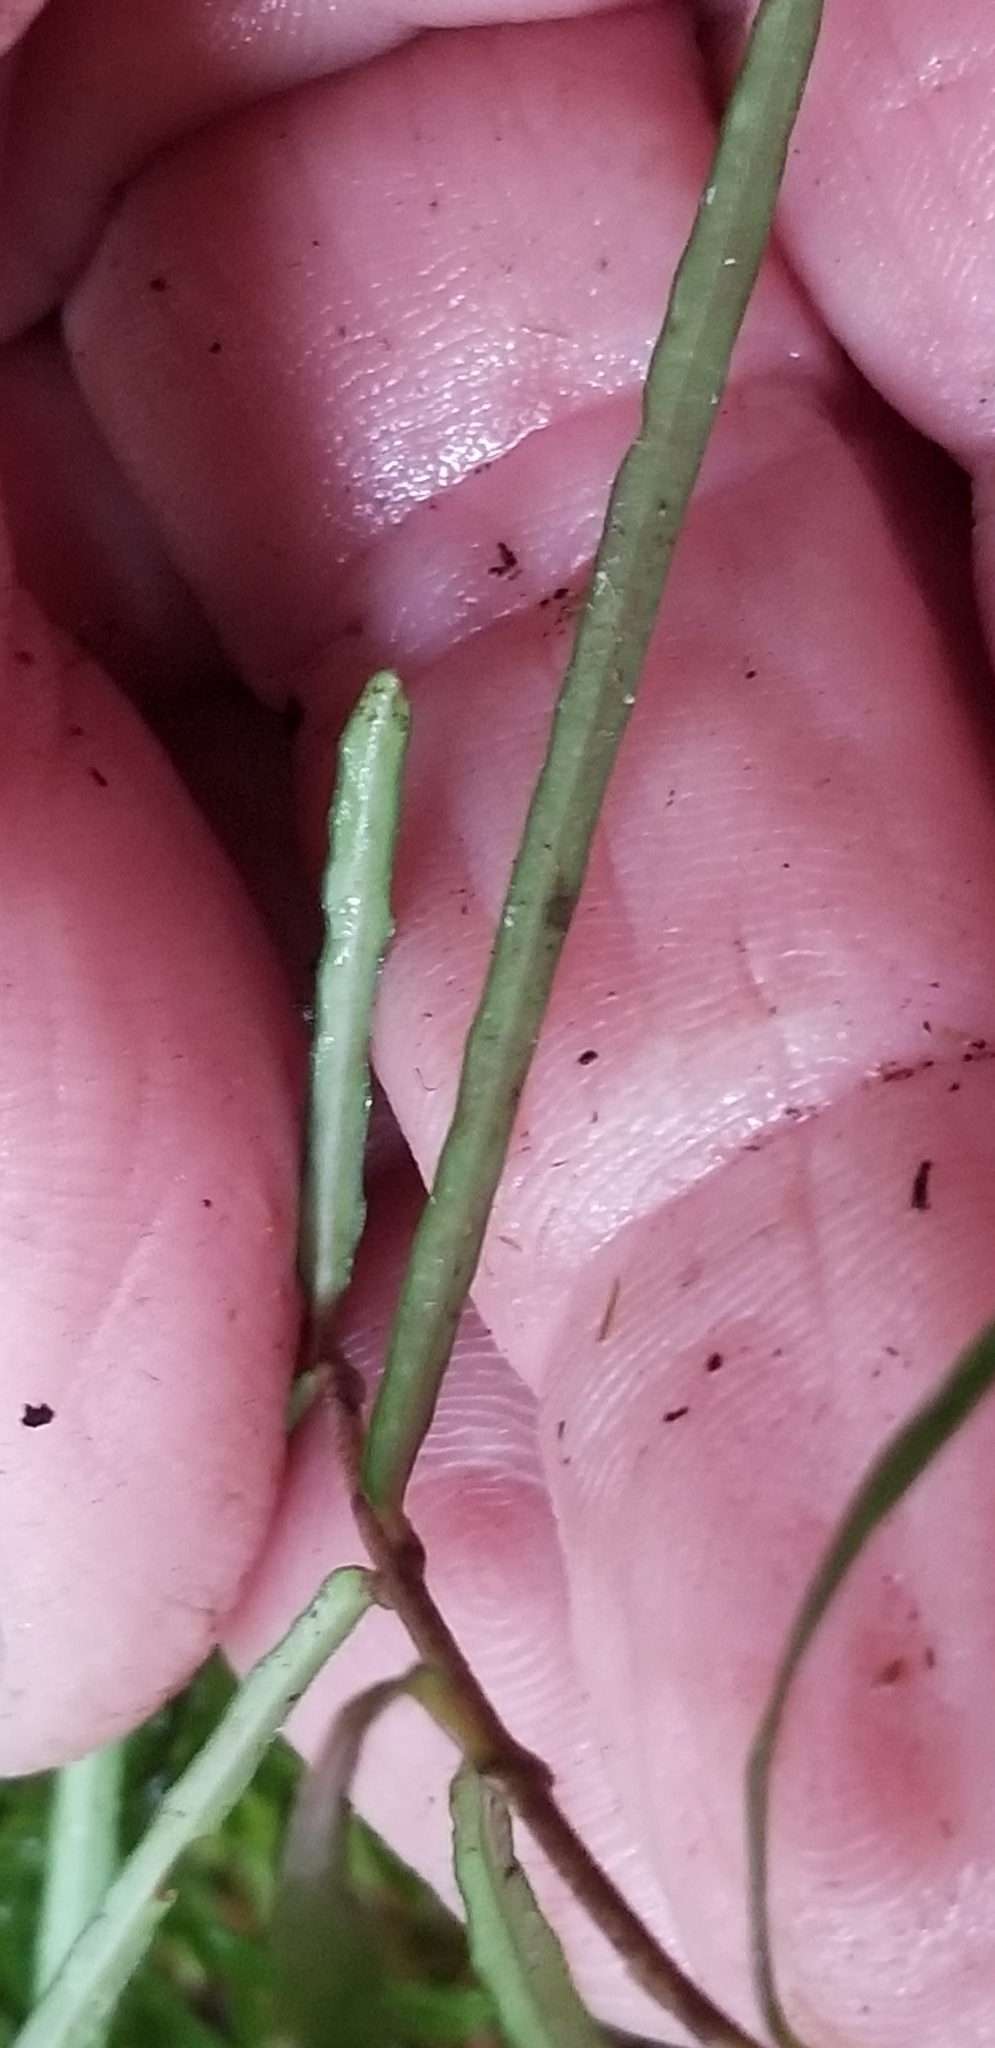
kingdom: Plantae
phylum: Tracheophyta
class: Magnoliopsida
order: Lamiales
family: Oleaceae
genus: Nestegis
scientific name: Nestegis montana
